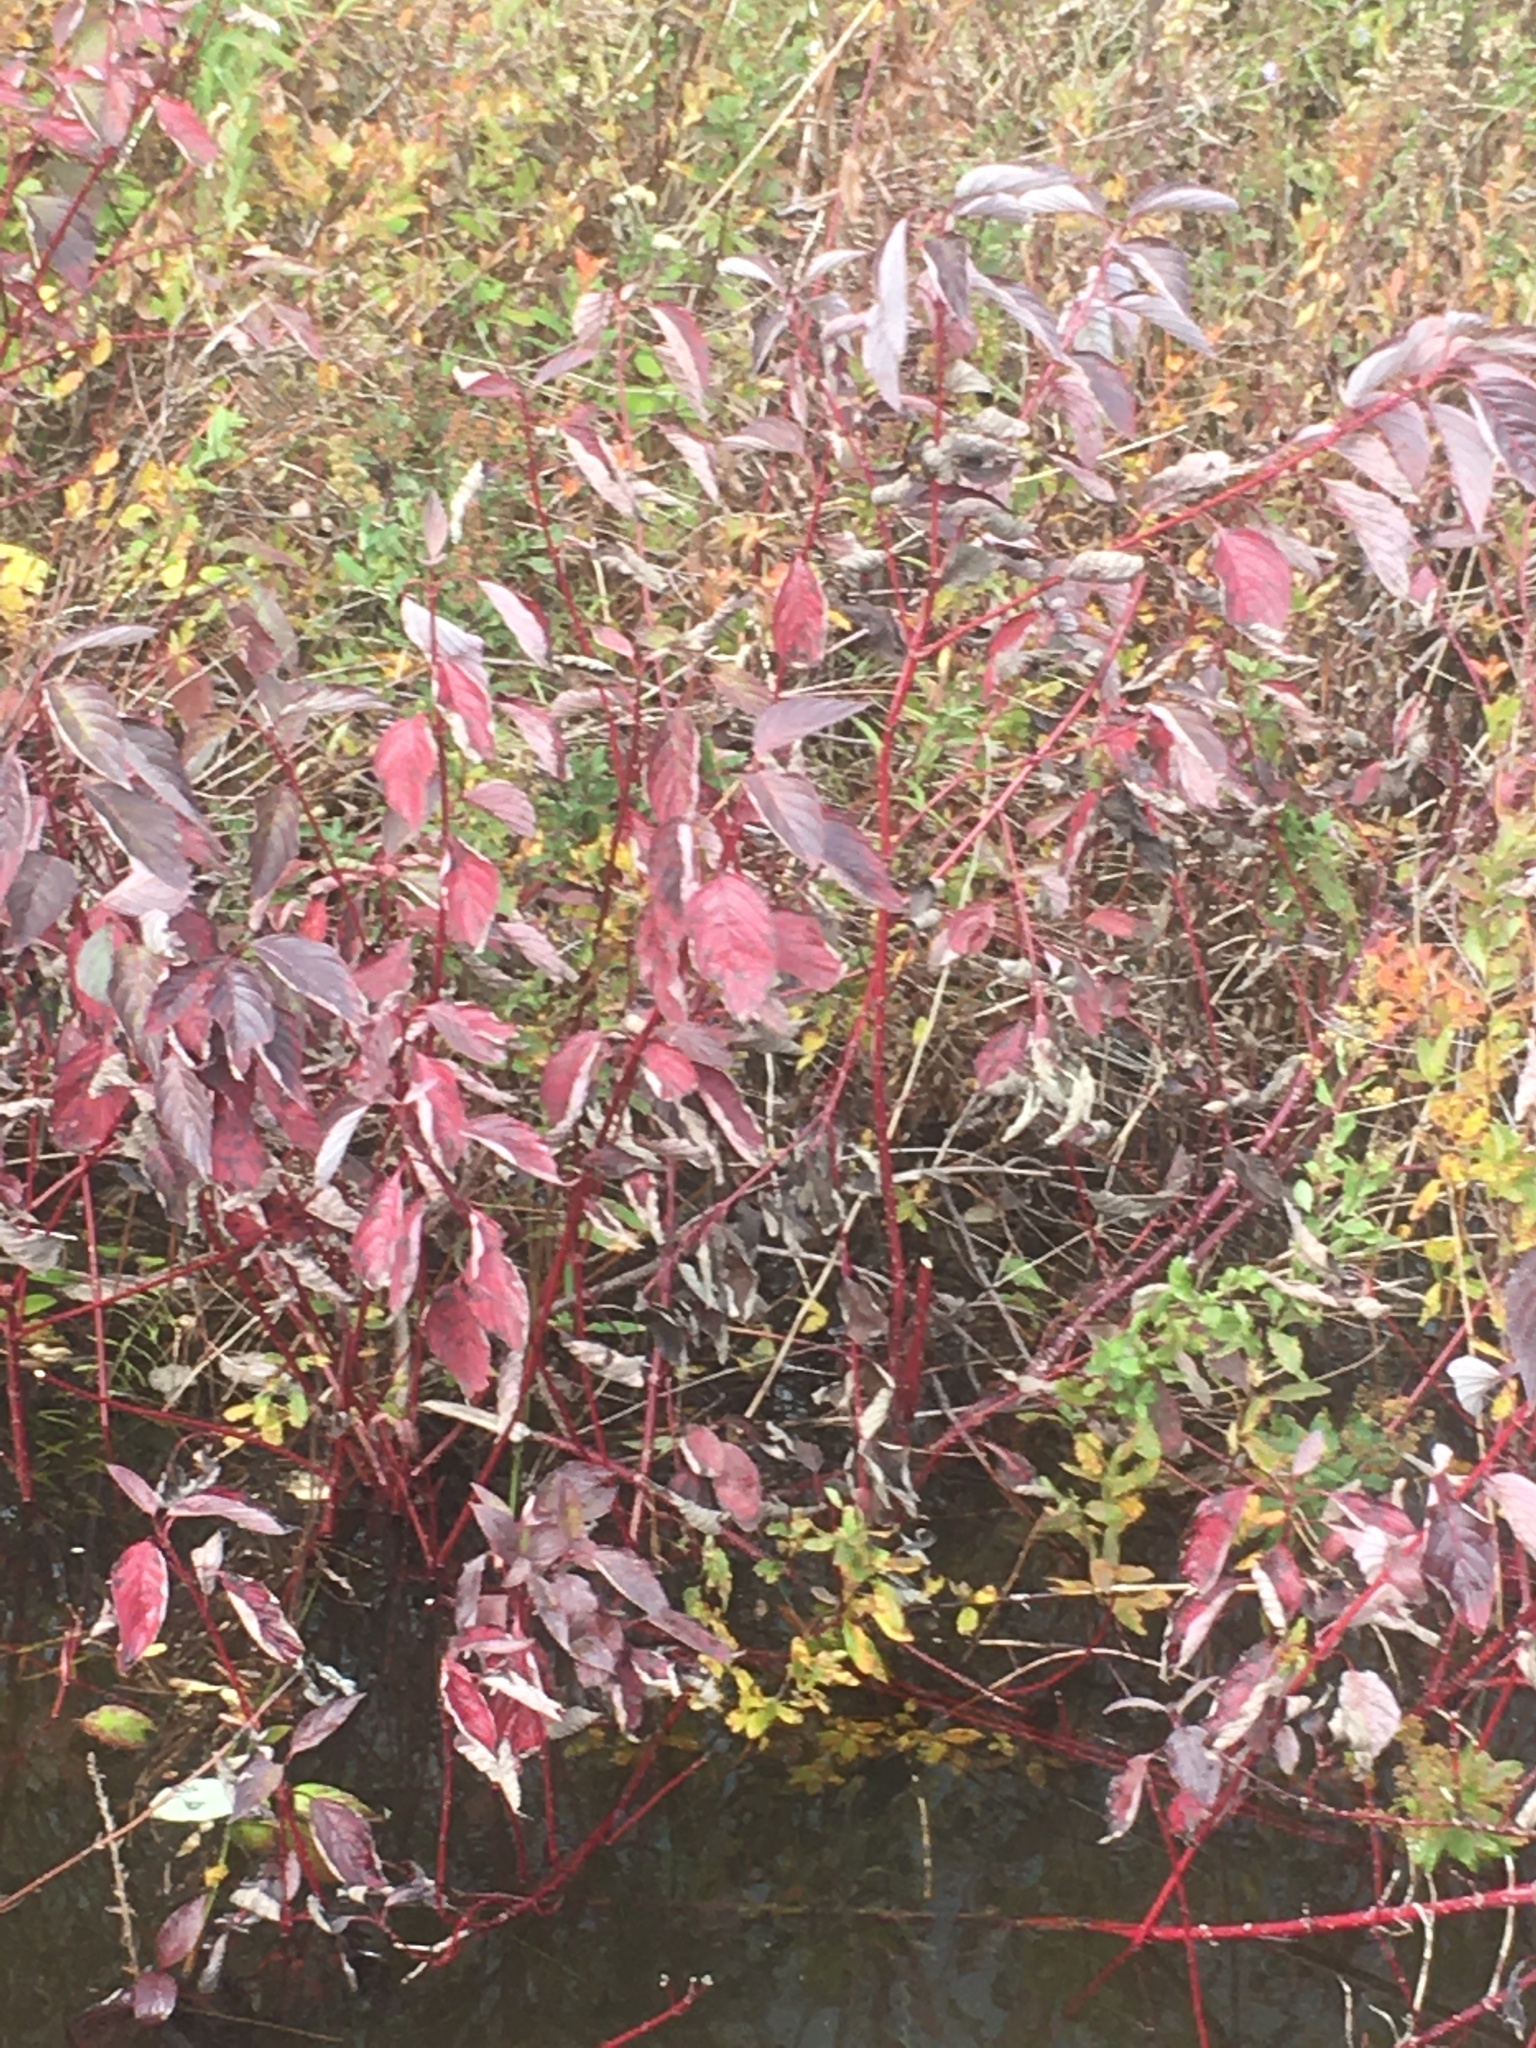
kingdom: Plantae
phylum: Tracheophyta
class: Magnoliopsida
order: Cornales
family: Cornaceae
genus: Cornus
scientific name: Cornus sericea
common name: Red-osier dogwood
